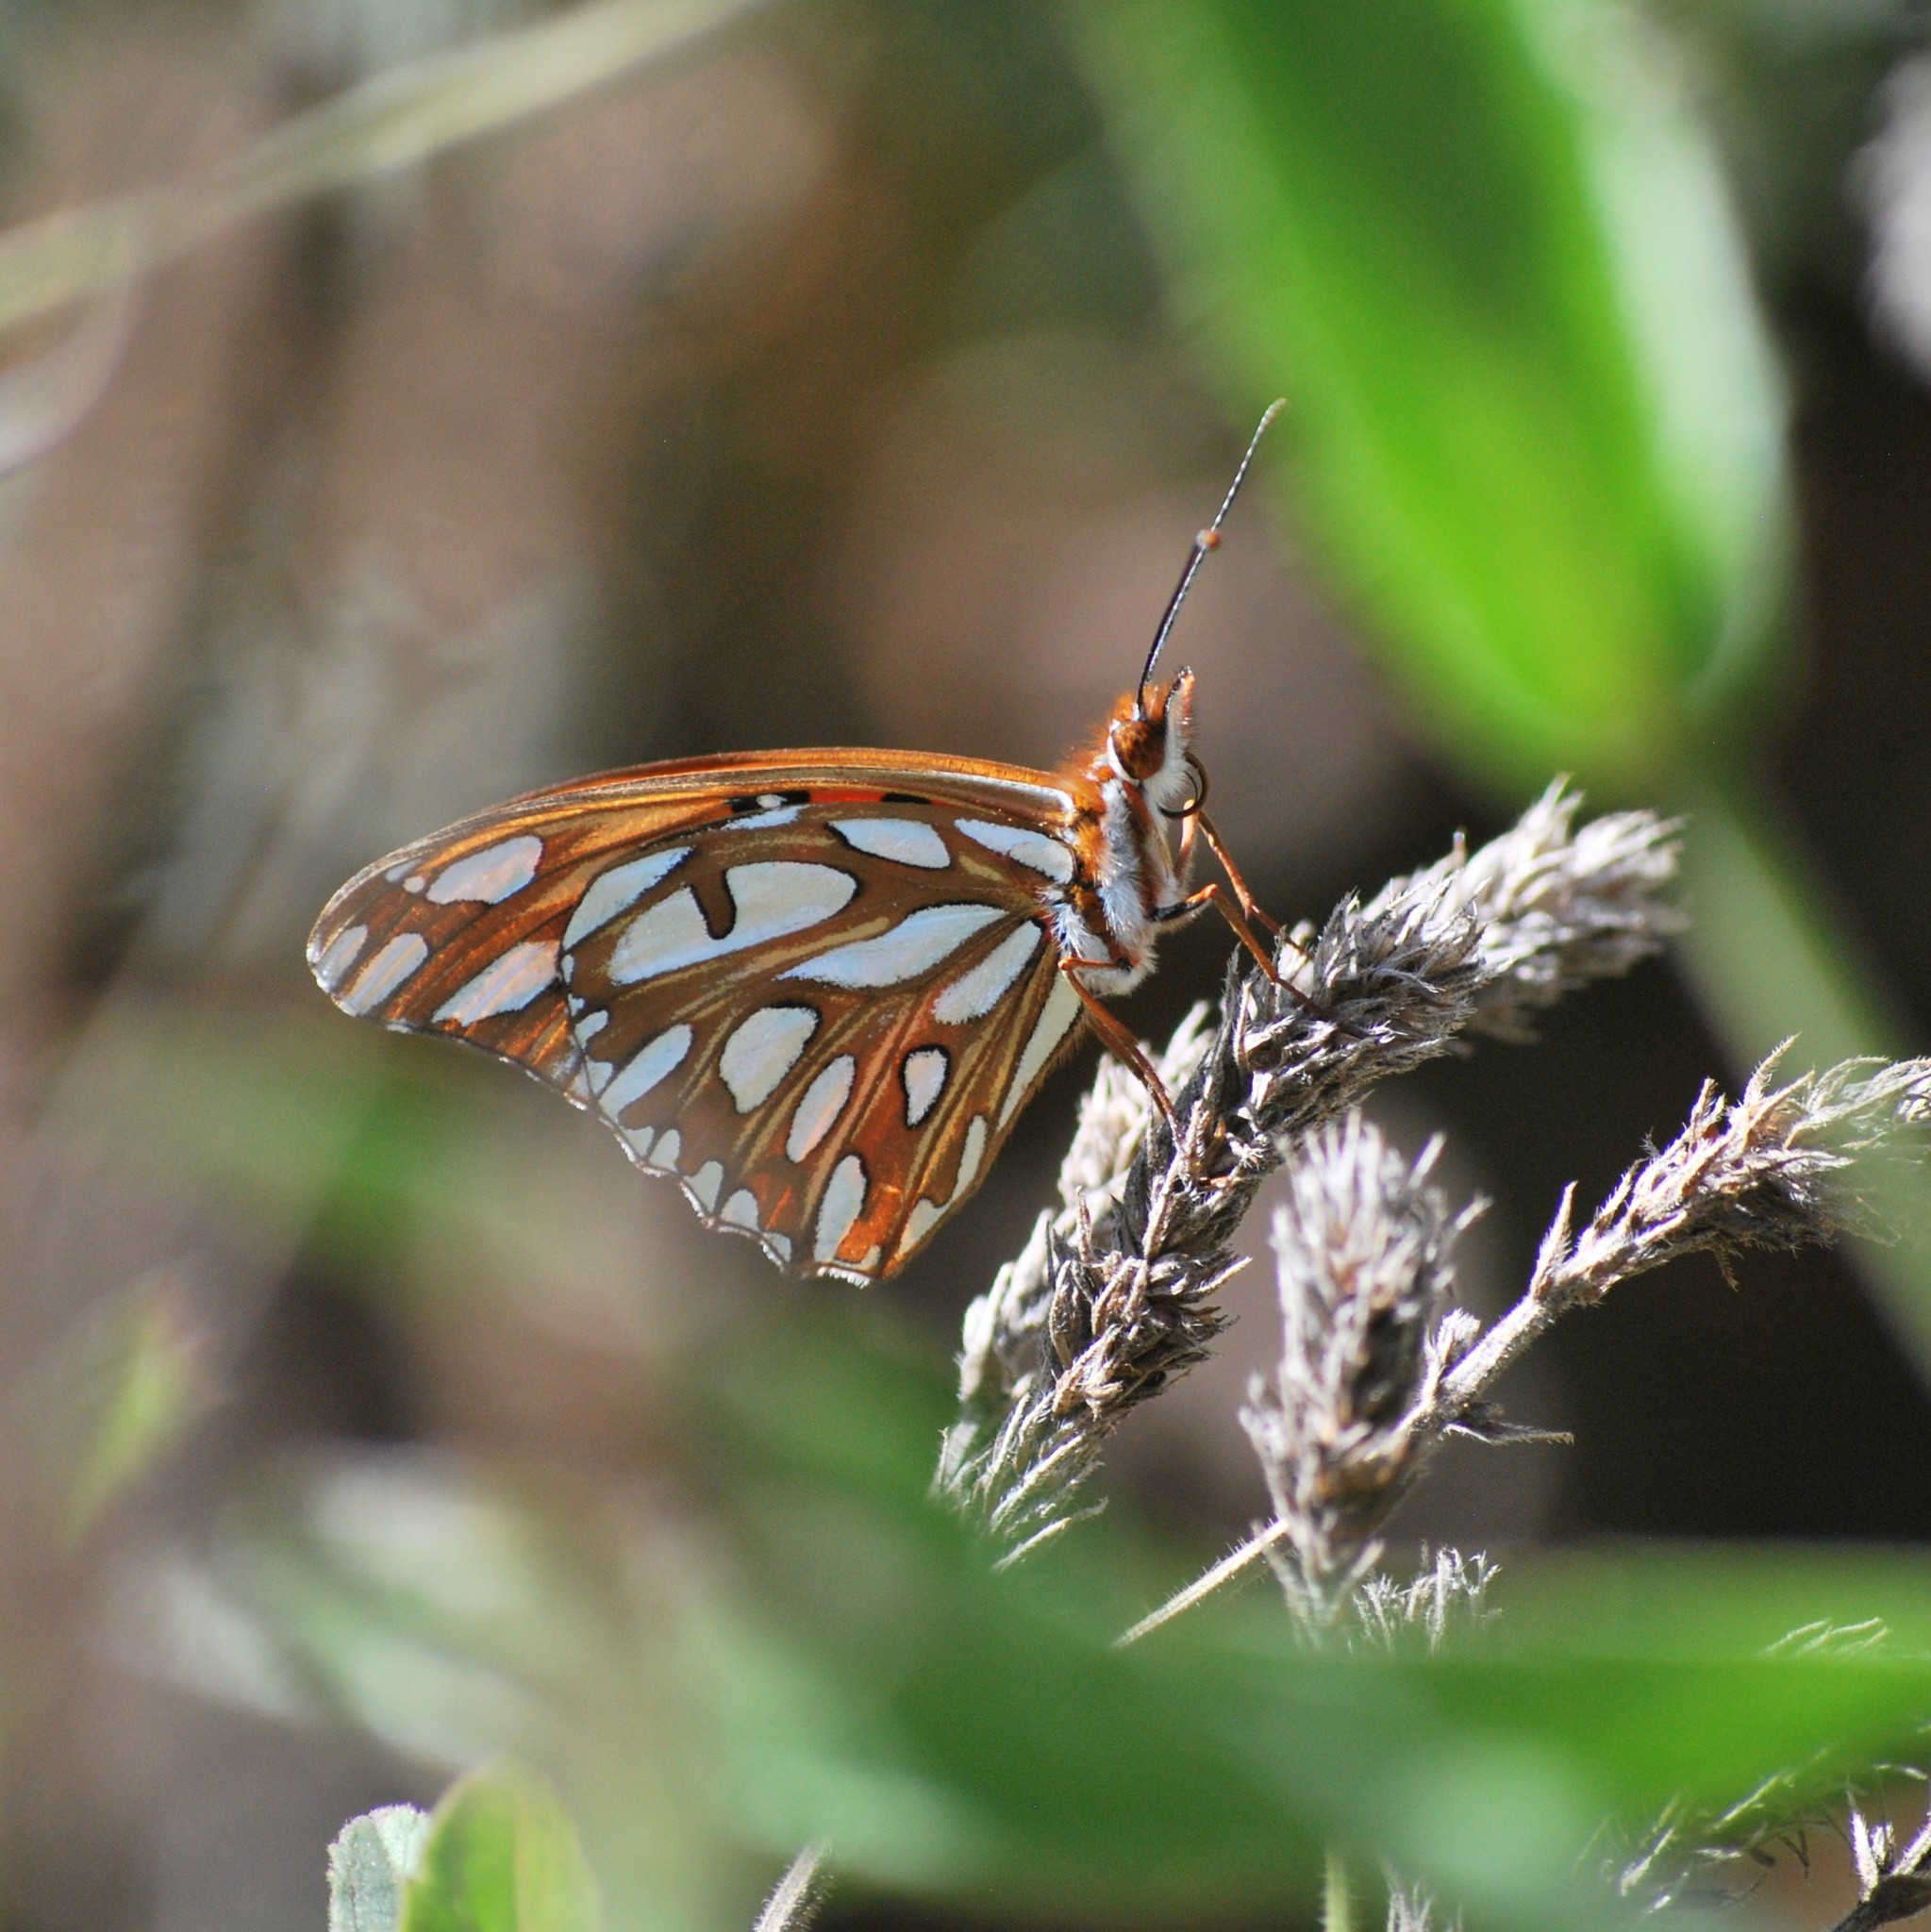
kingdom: Animalia
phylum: Arthropoda
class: Insecta
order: Lepidoptera
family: Nymphalidae
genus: Dione
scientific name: Dione vanillae
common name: Gulf fritillary
